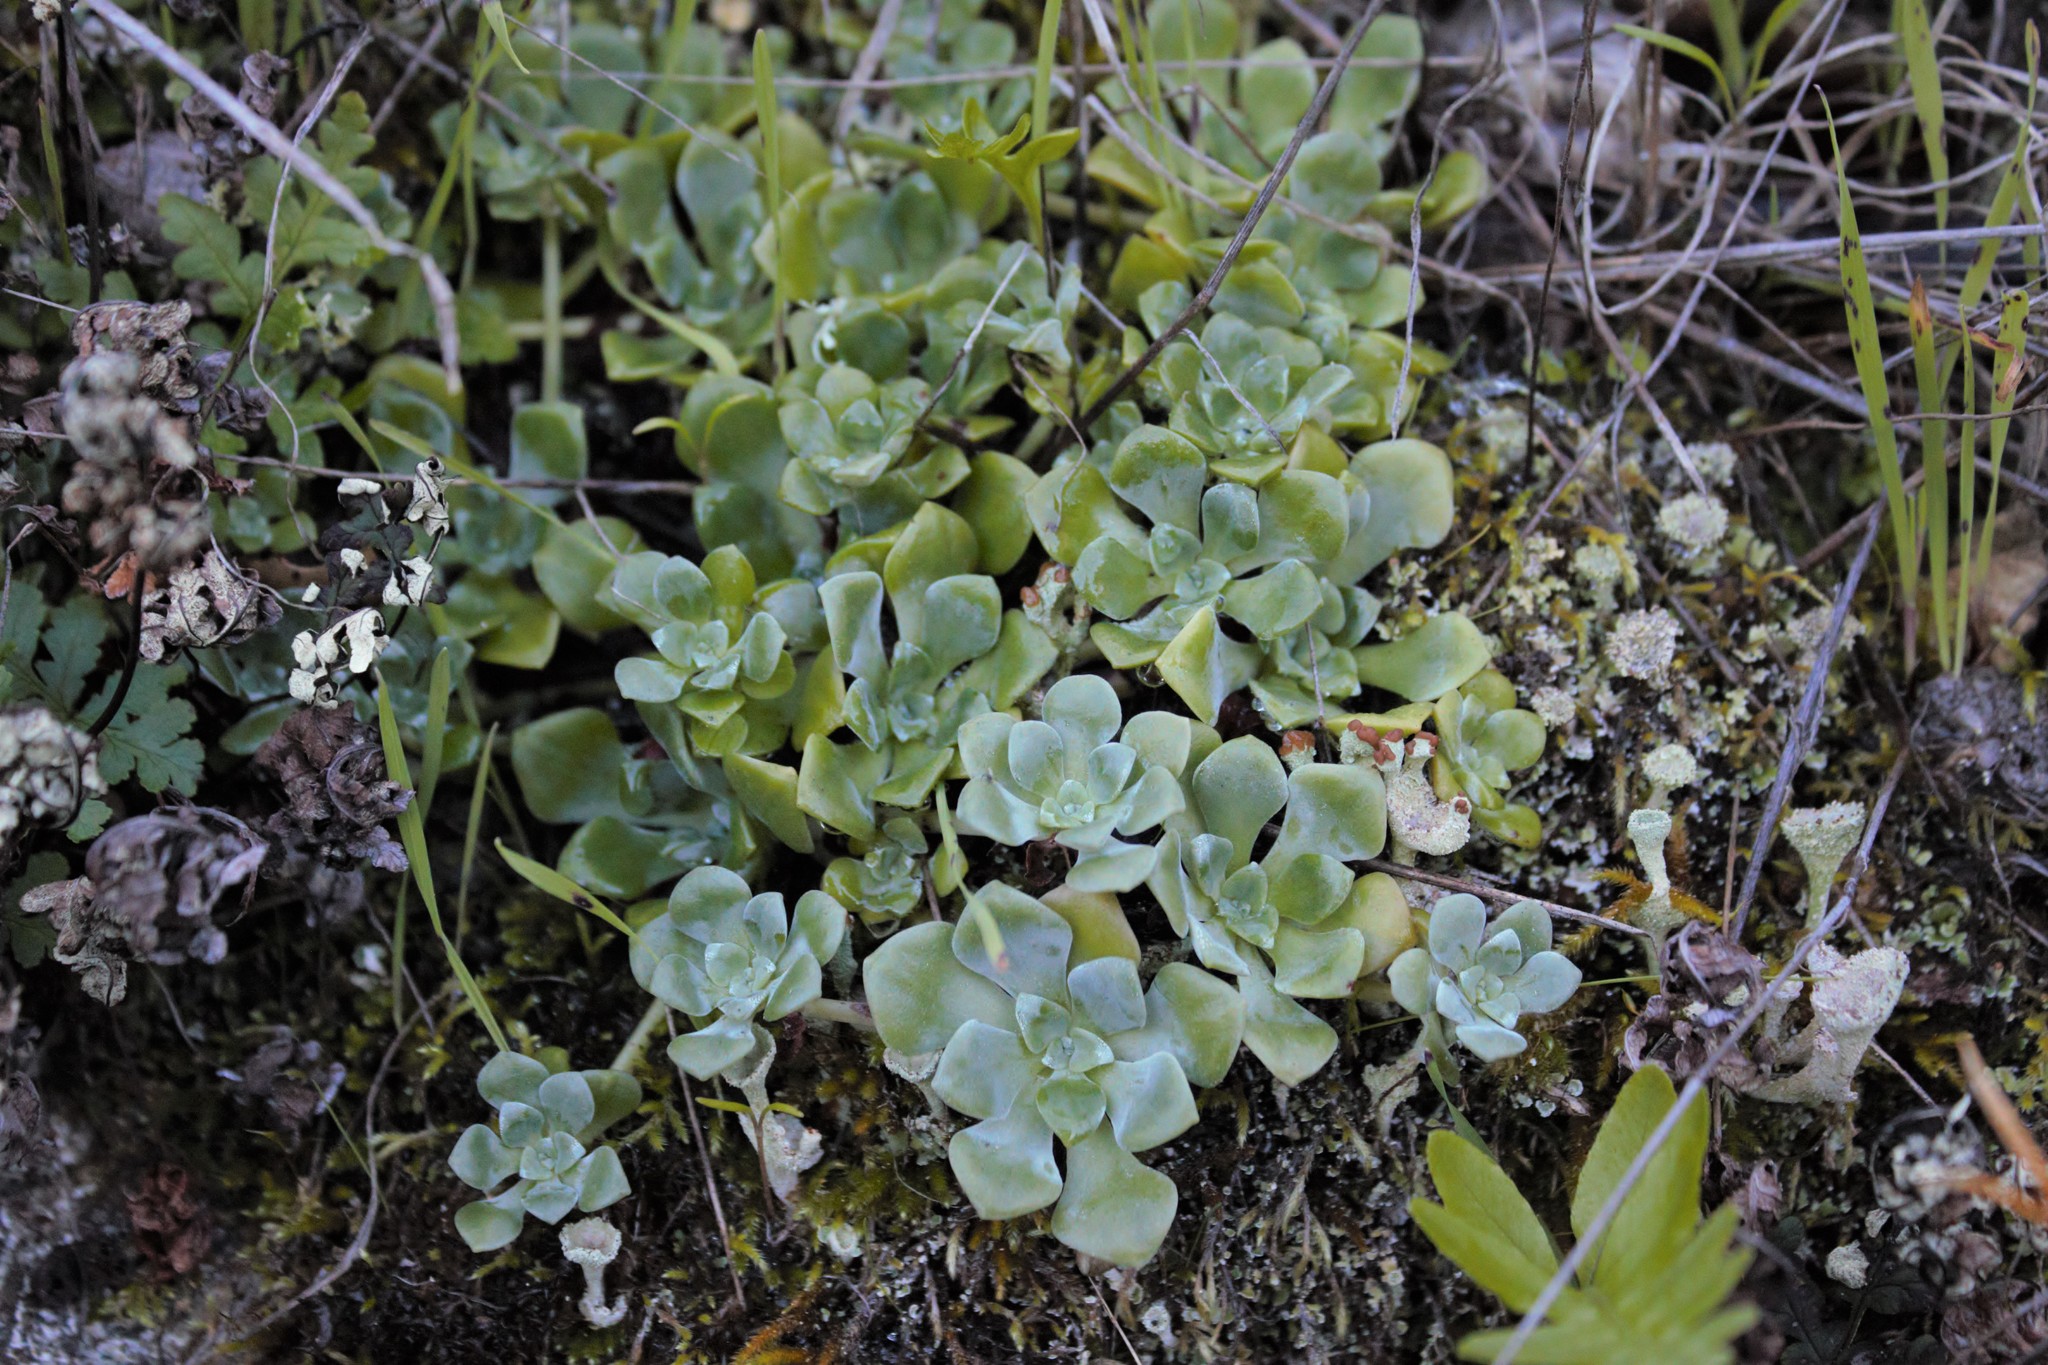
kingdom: Plantae
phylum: Tracheophyta
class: Magnoliopsida
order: Saxifragales
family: Crassulaceae
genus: Sedum
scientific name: Sedum spathulifolium
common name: Colorado stonecrop
